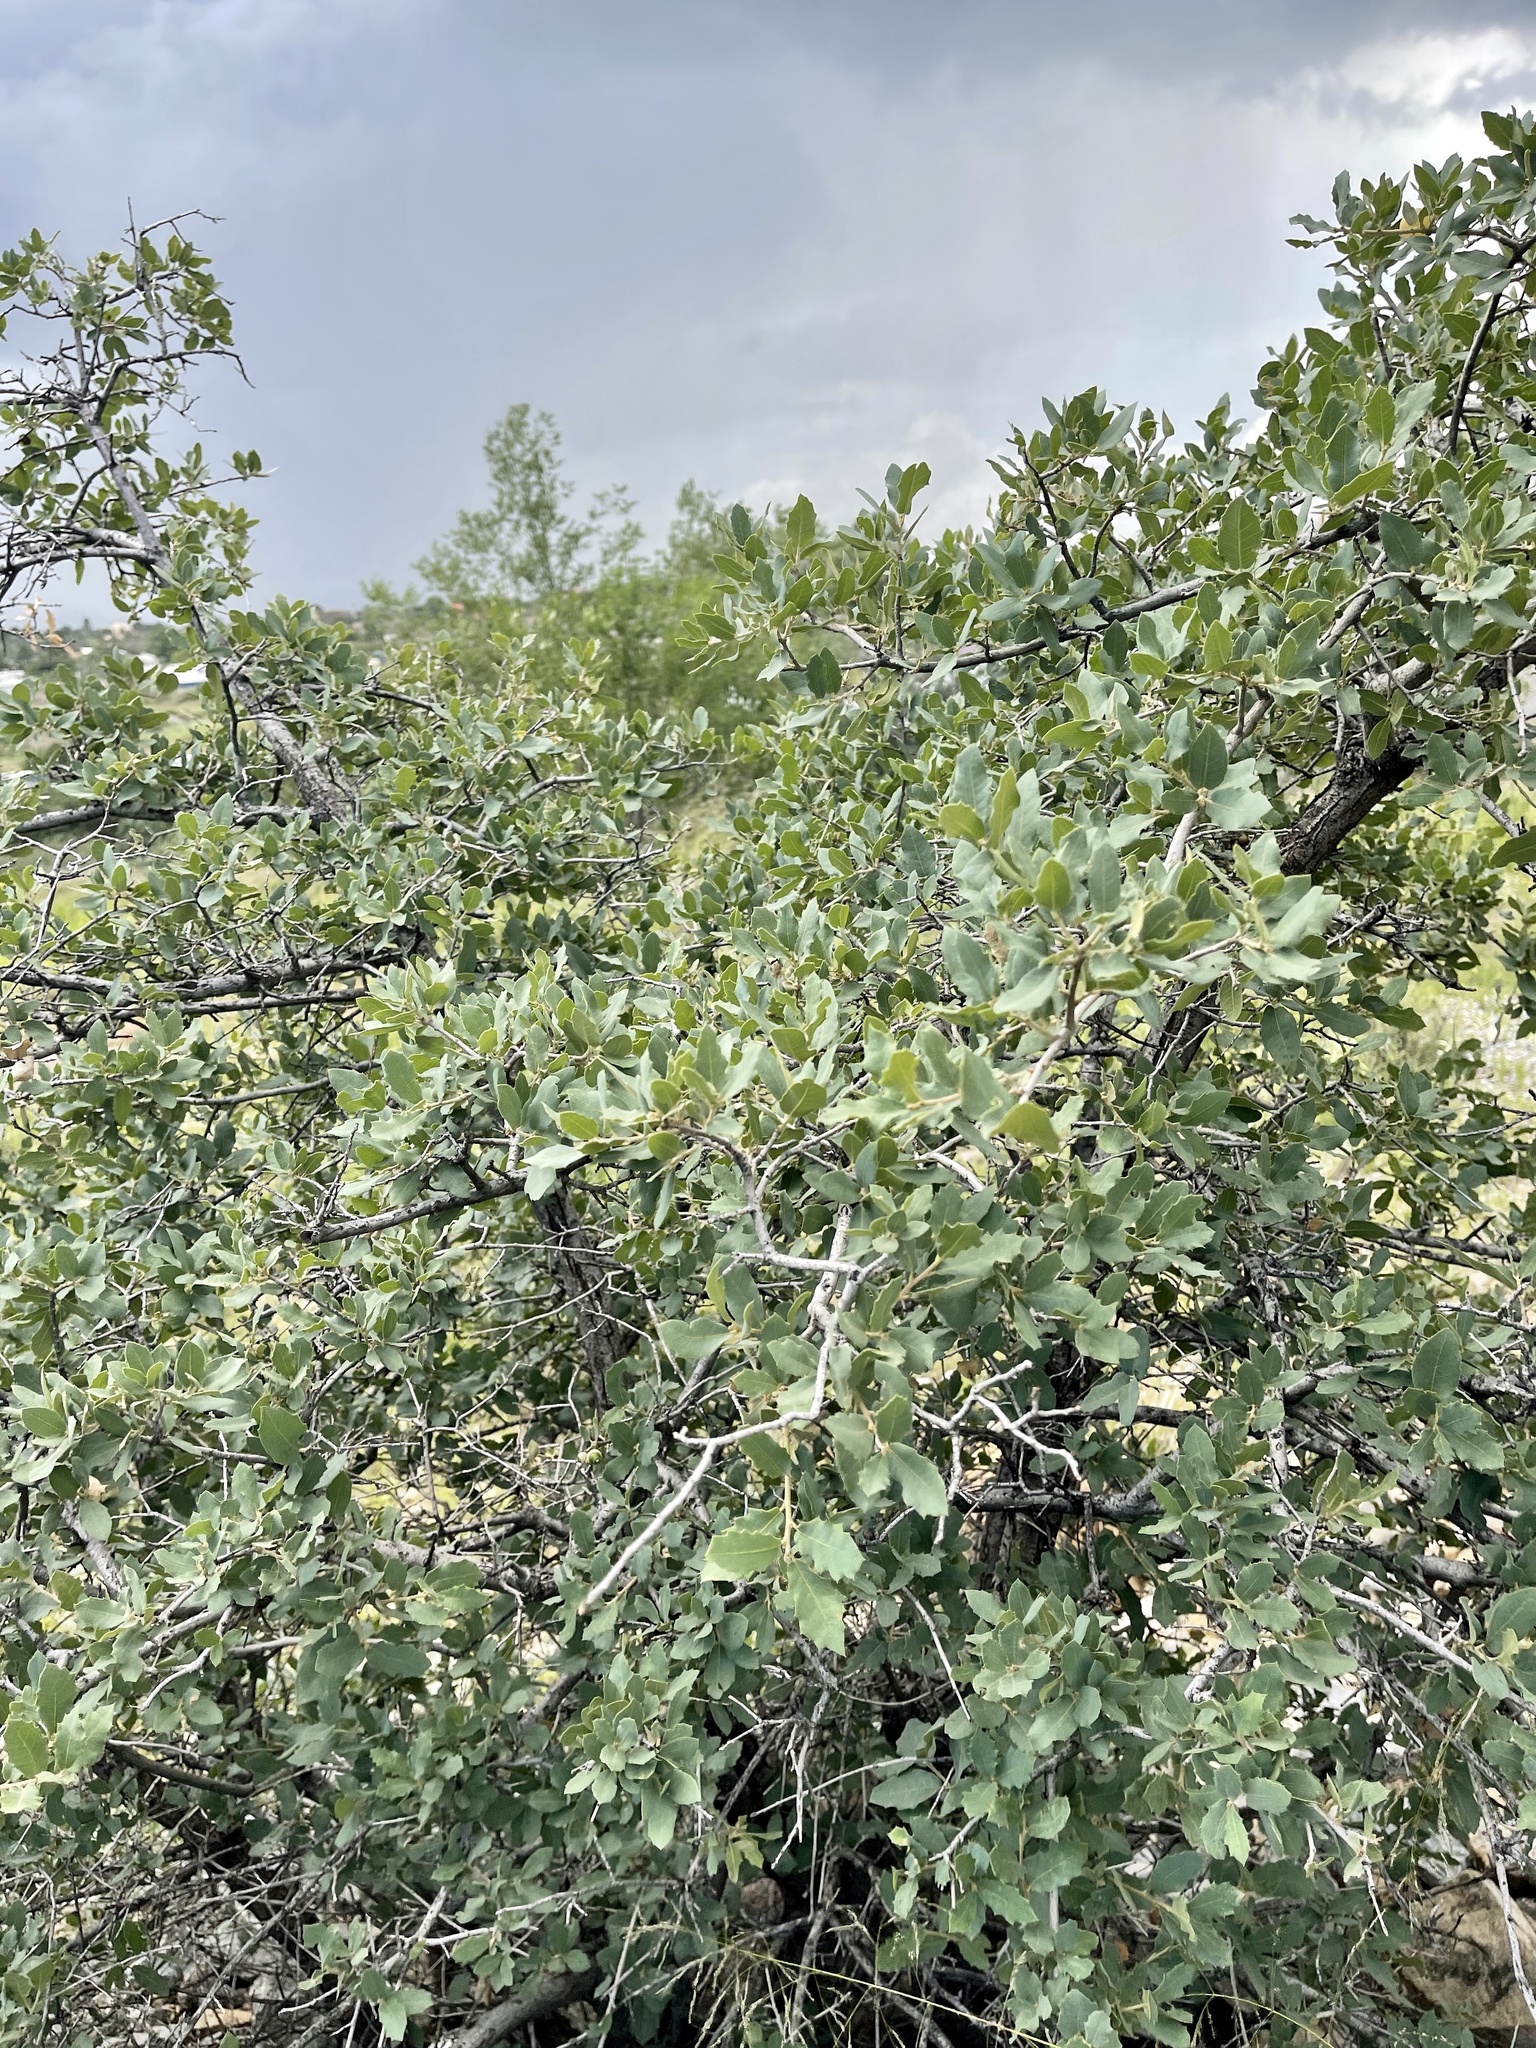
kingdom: Plantae
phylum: Tracheophyta
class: Magnoliopsida
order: Fagales
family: Fagaceae
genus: Quercus
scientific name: Quercus grisea
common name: Gray oak
